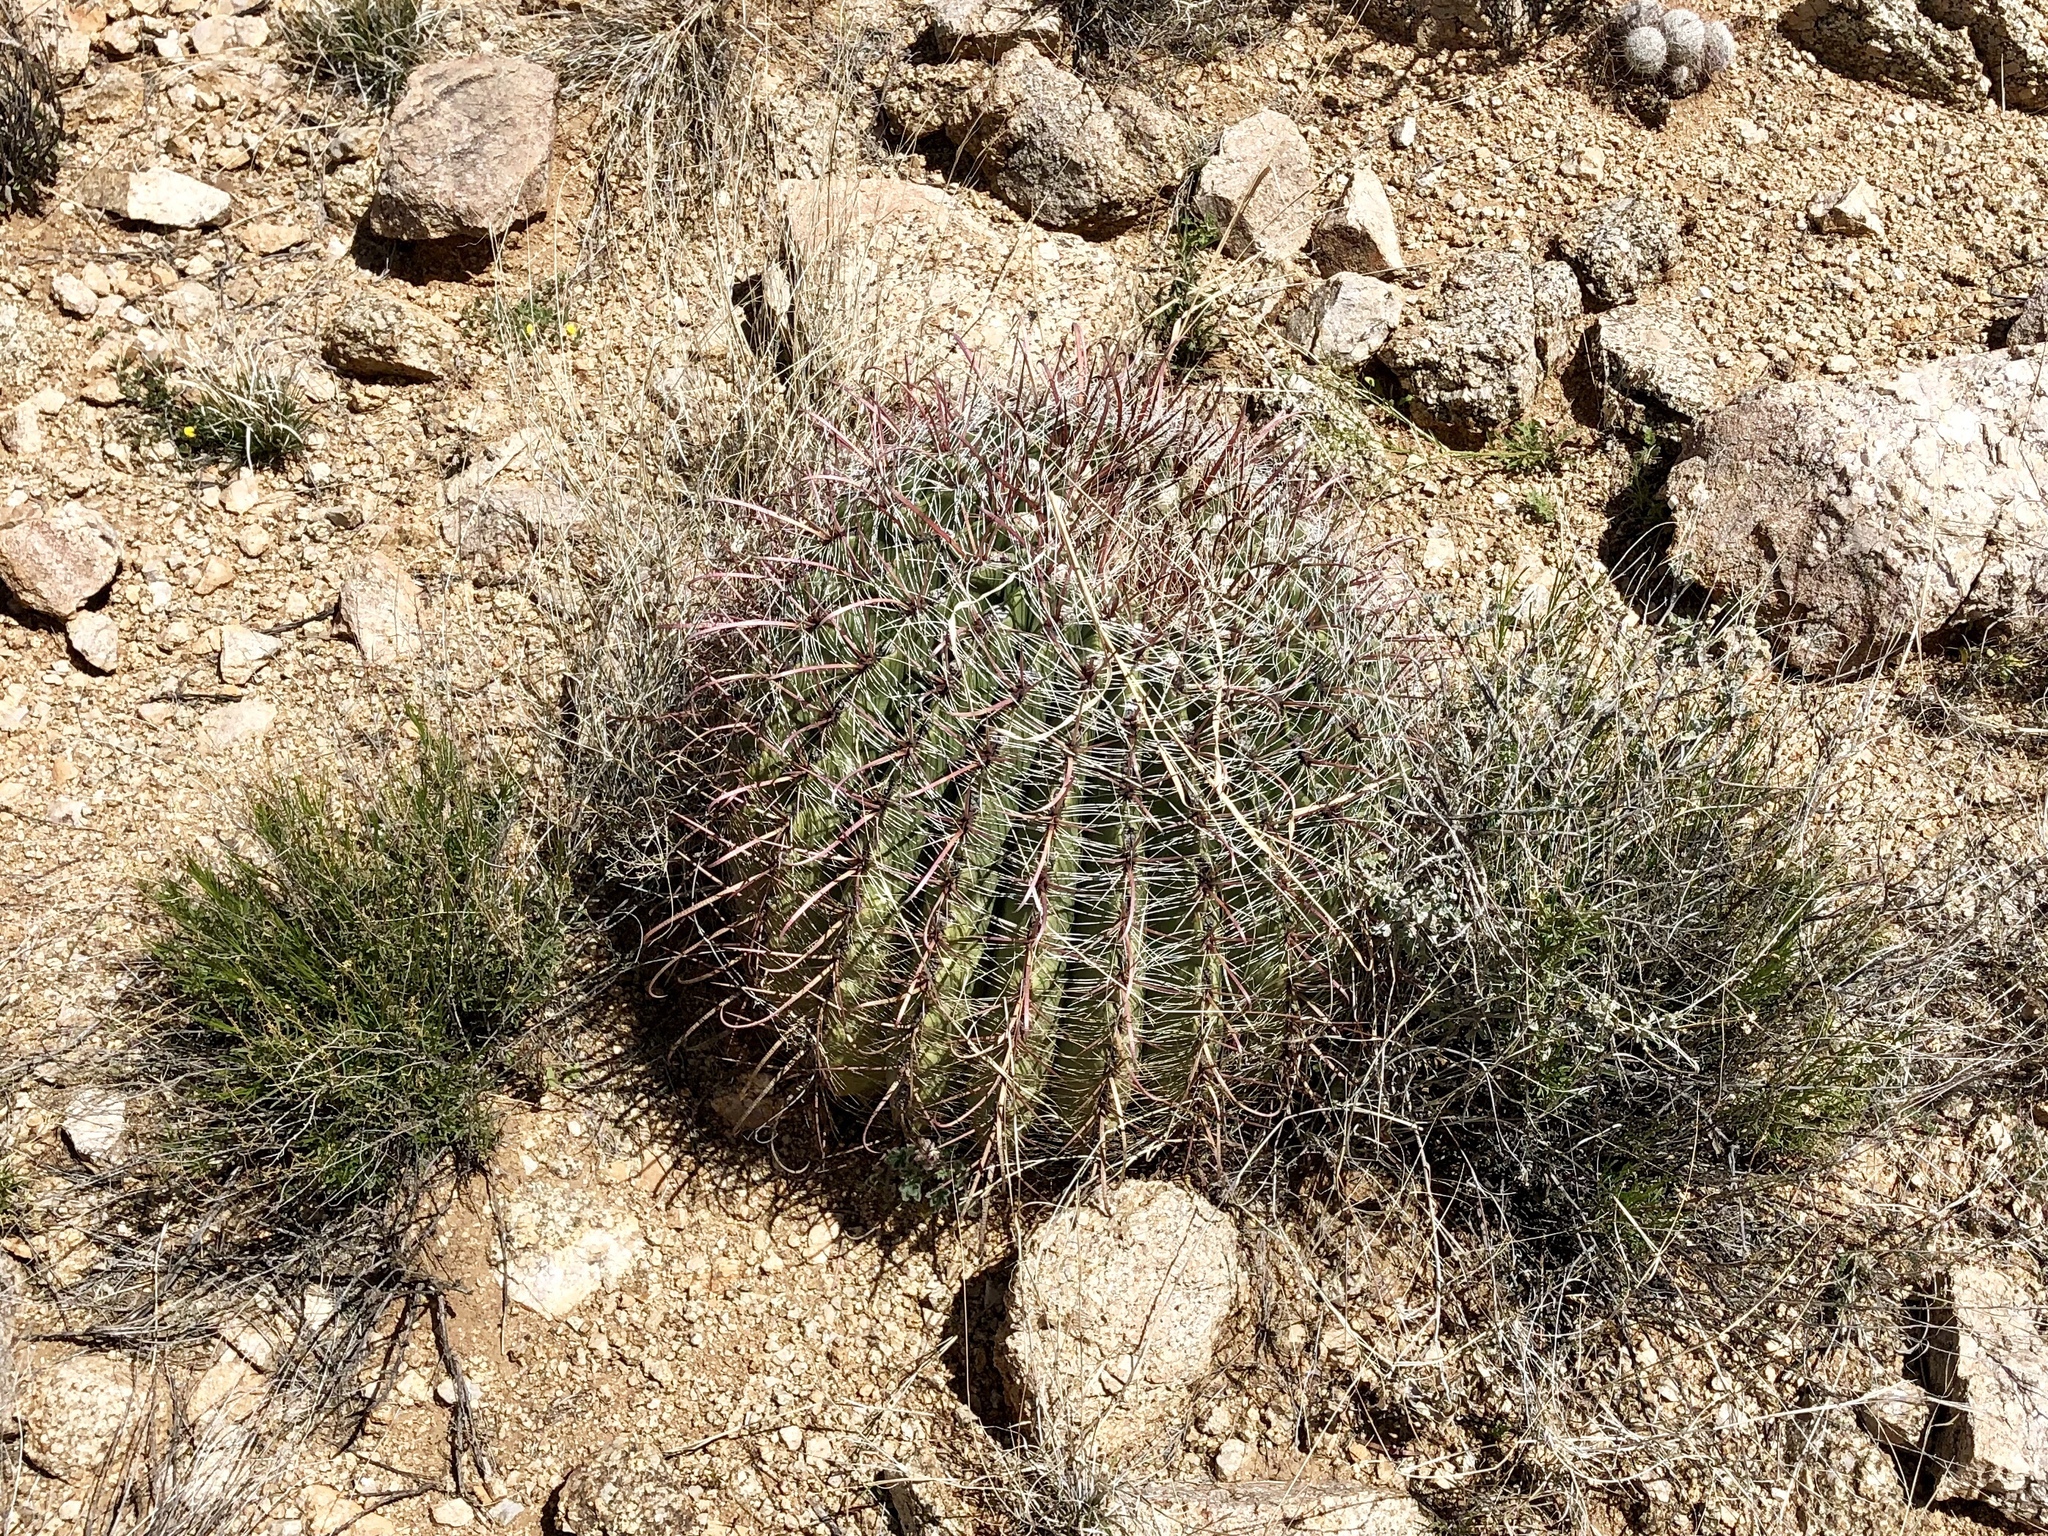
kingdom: Plantae
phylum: Tracheophyta
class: Magnoliopsida
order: Caryophyllales
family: Cactaceae
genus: Ferocactus
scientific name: Ferocactus wislizeni
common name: Candy barrel cactus
